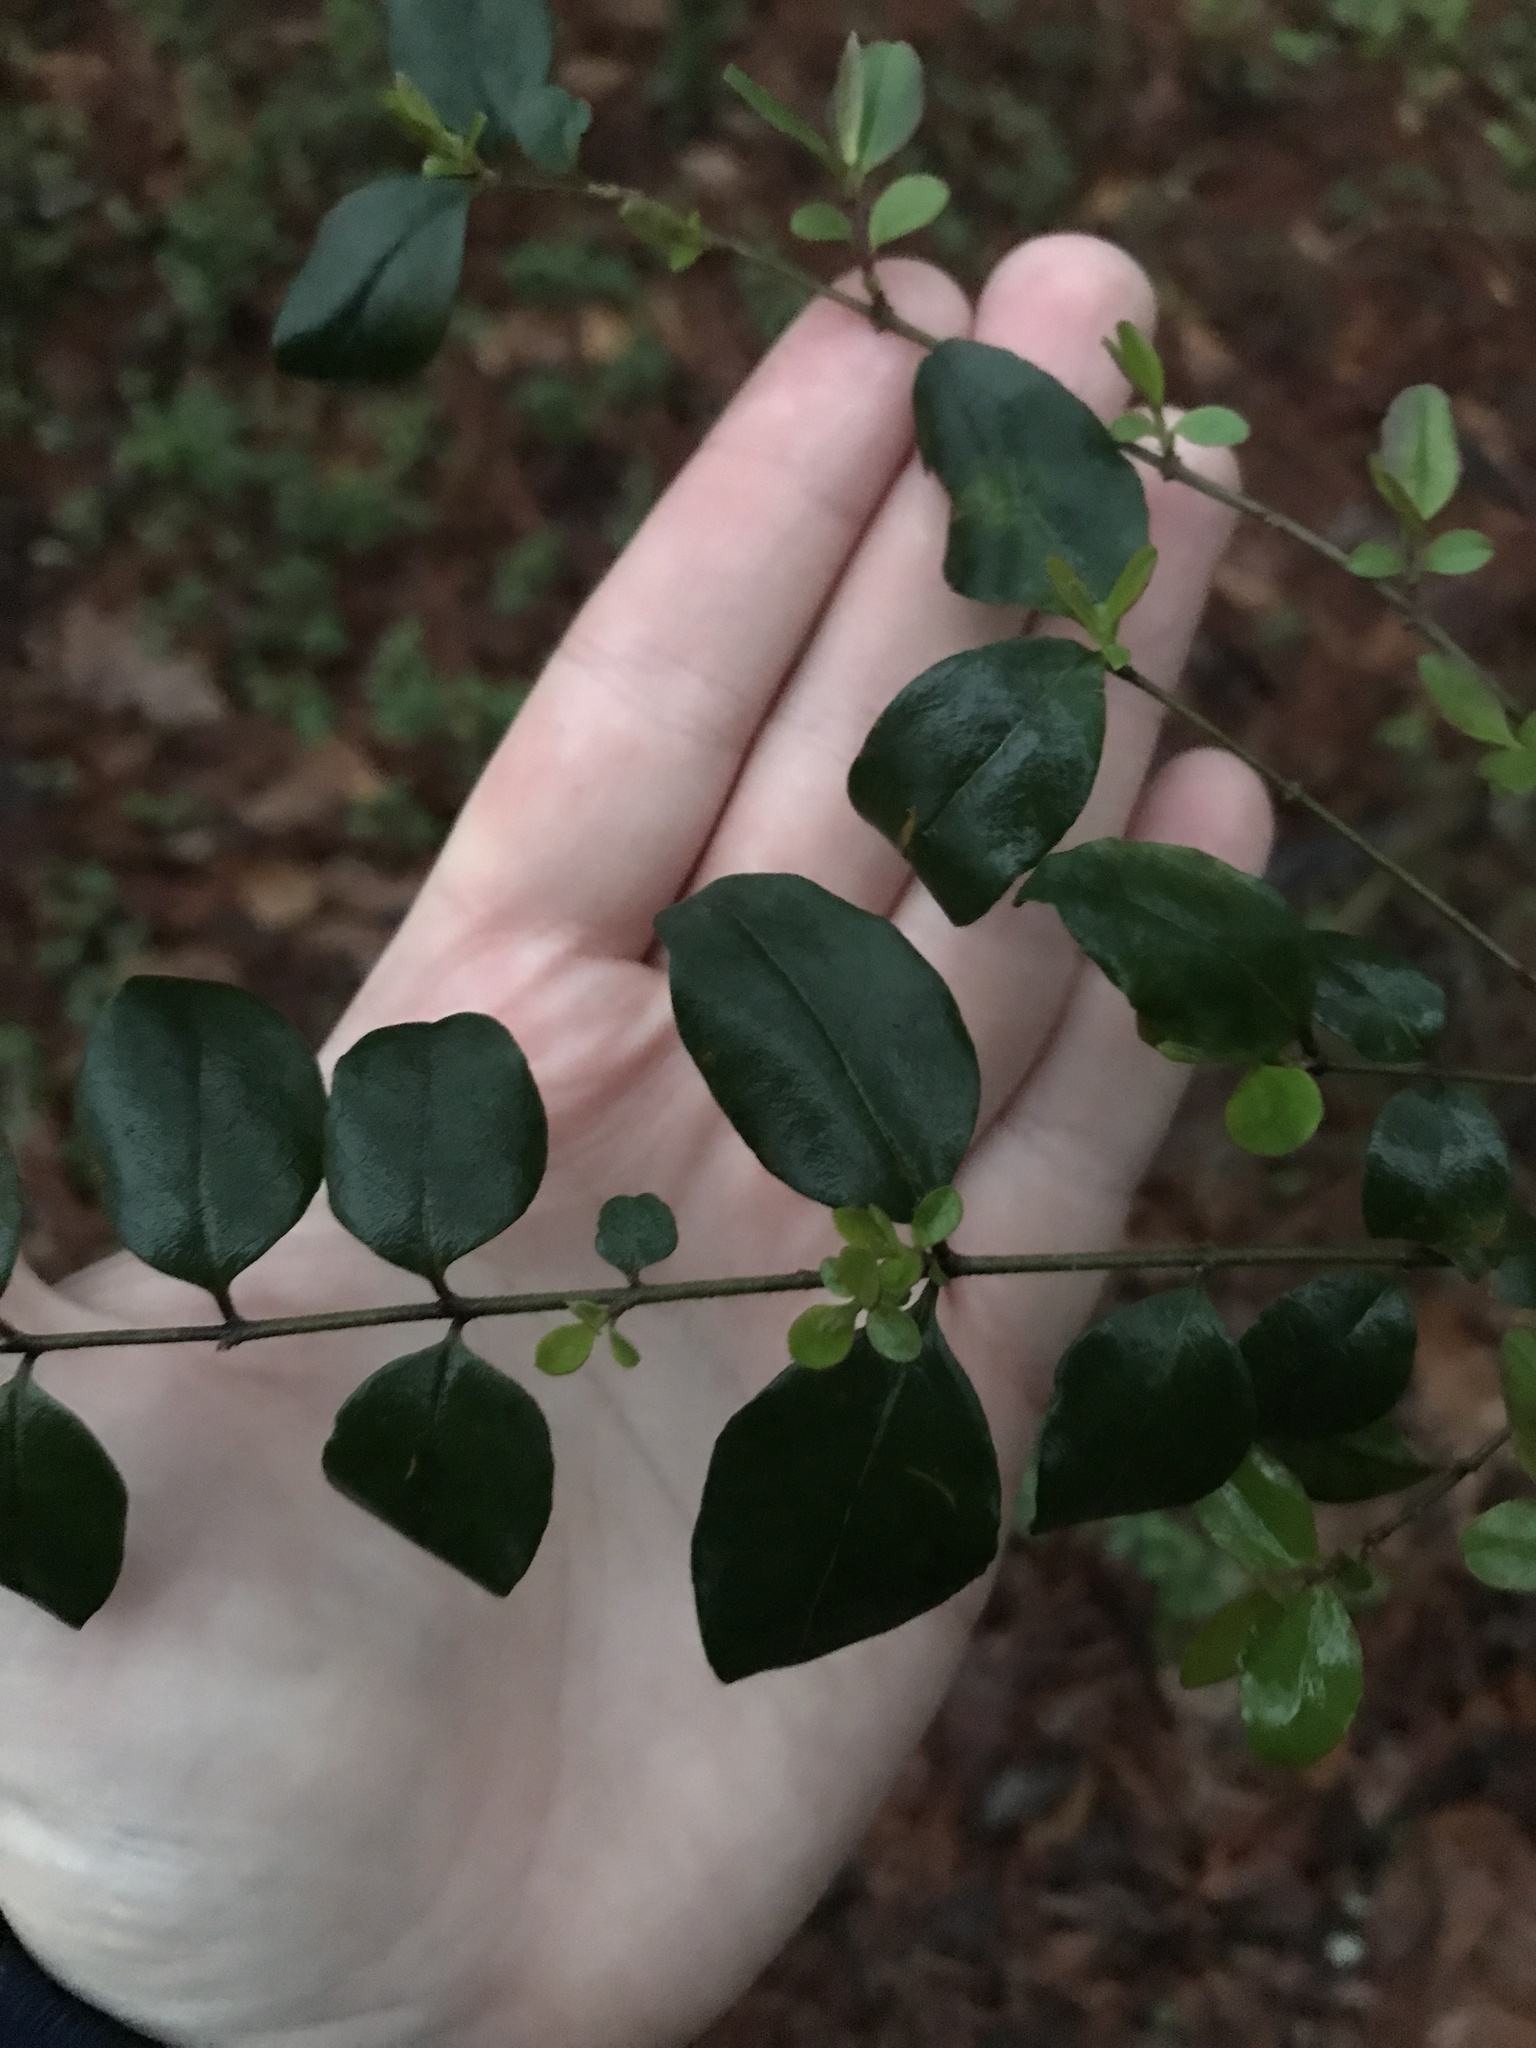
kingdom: Plantae
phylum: Tracheophyta
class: Magnoliopsida
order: Lamiales
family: Oleaceae
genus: Ligustrum
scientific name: Ligustrum sinense
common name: Chinese privet
